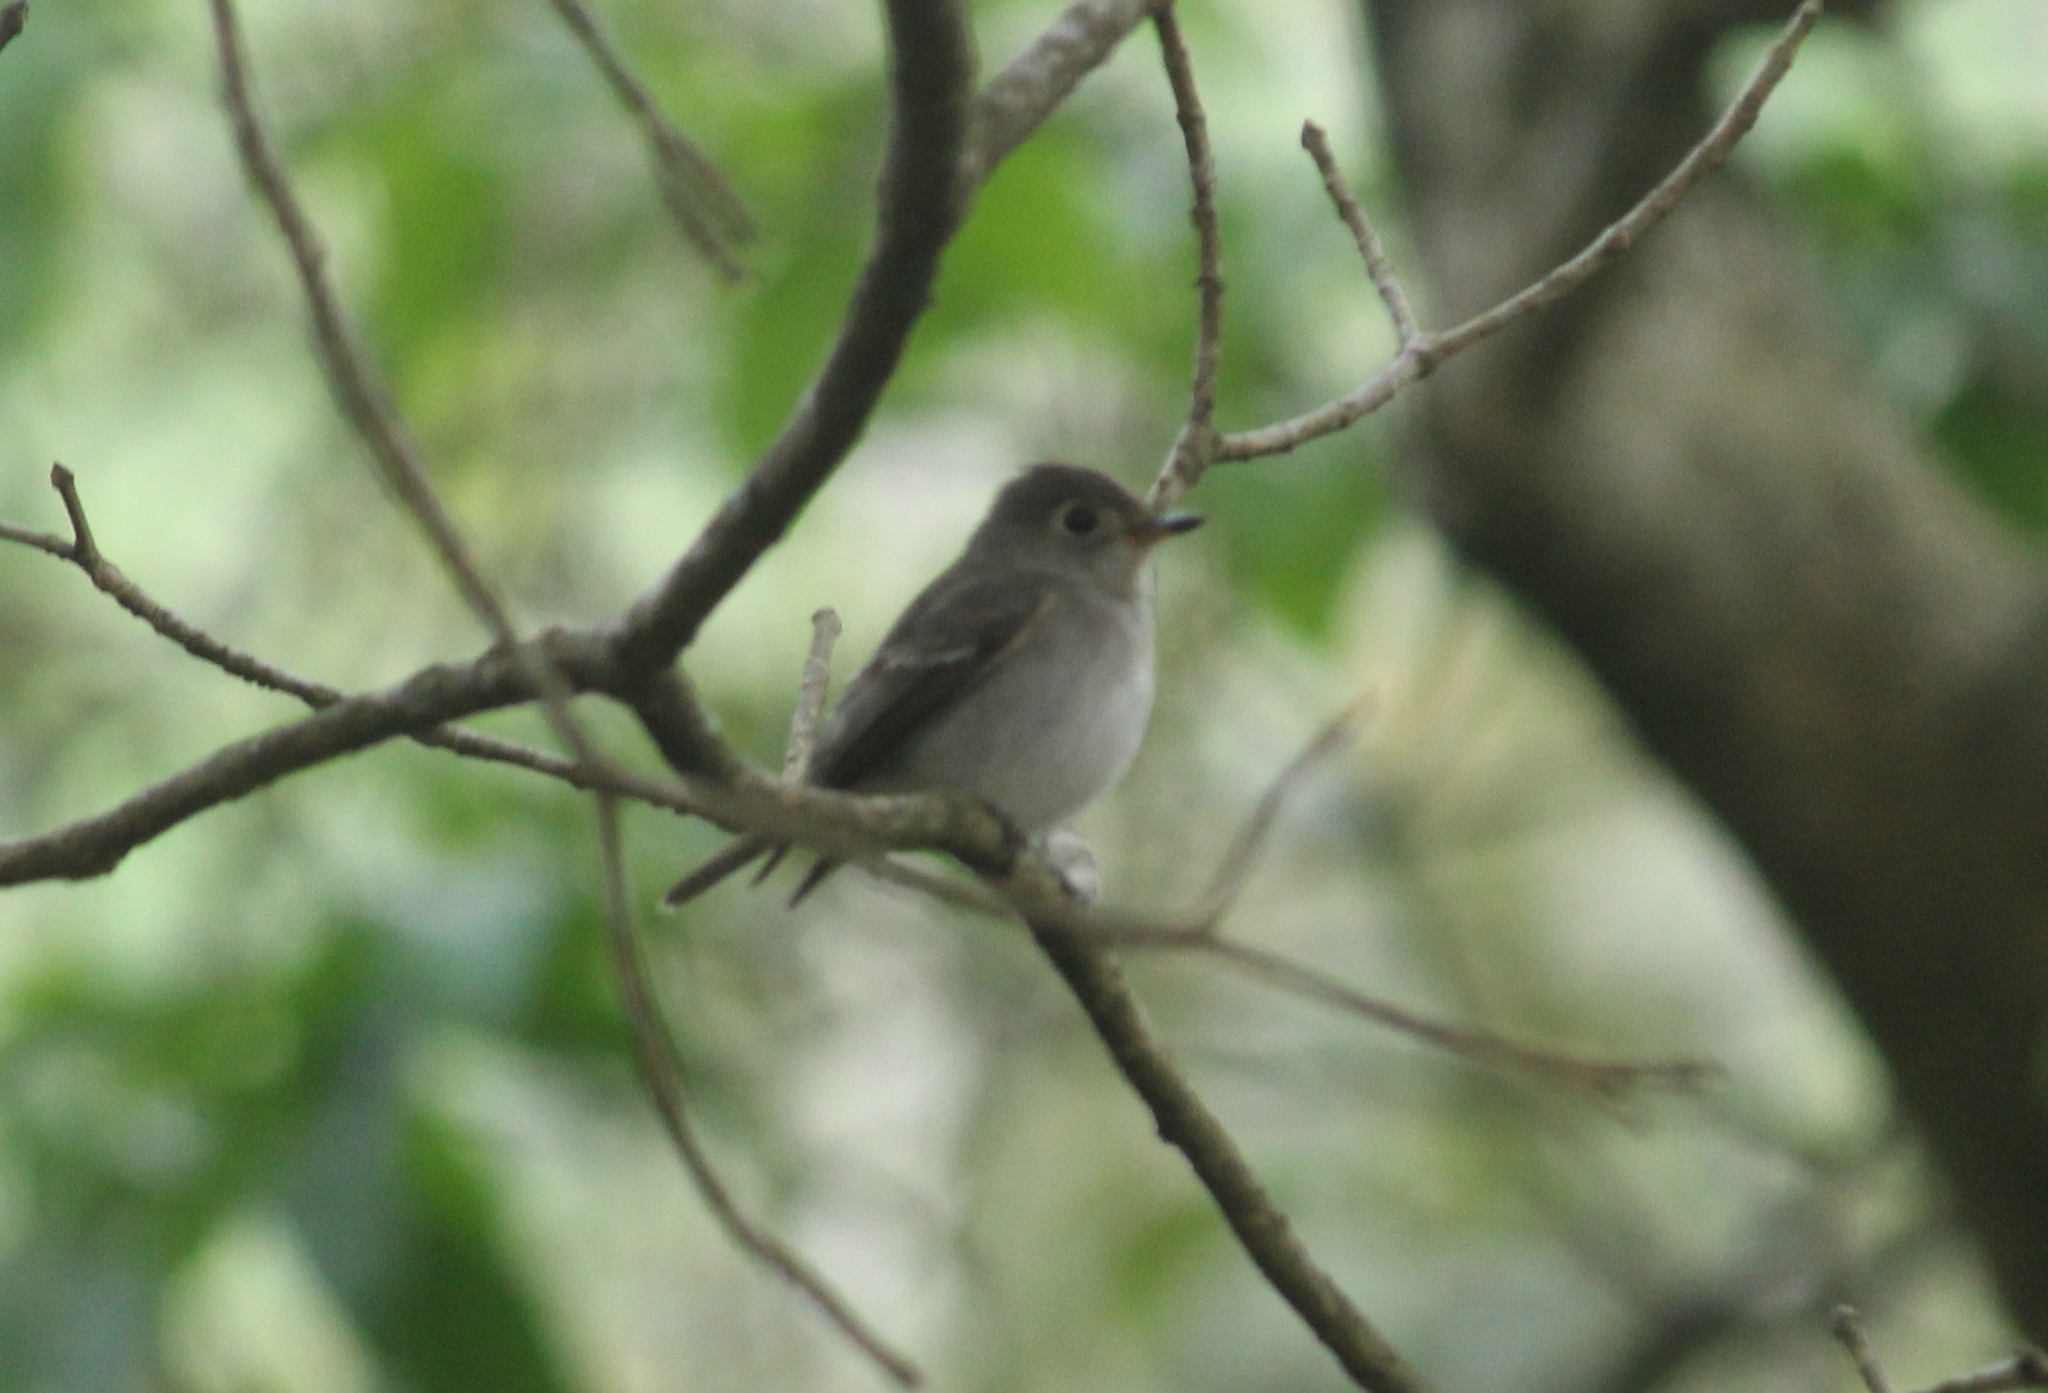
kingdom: Animalia
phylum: Chordata
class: Aves
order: Passeriformes
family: Muscicapidae
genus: Muscicapa
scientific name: Muscicapa latirostris
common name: Asian brown flycatcher
